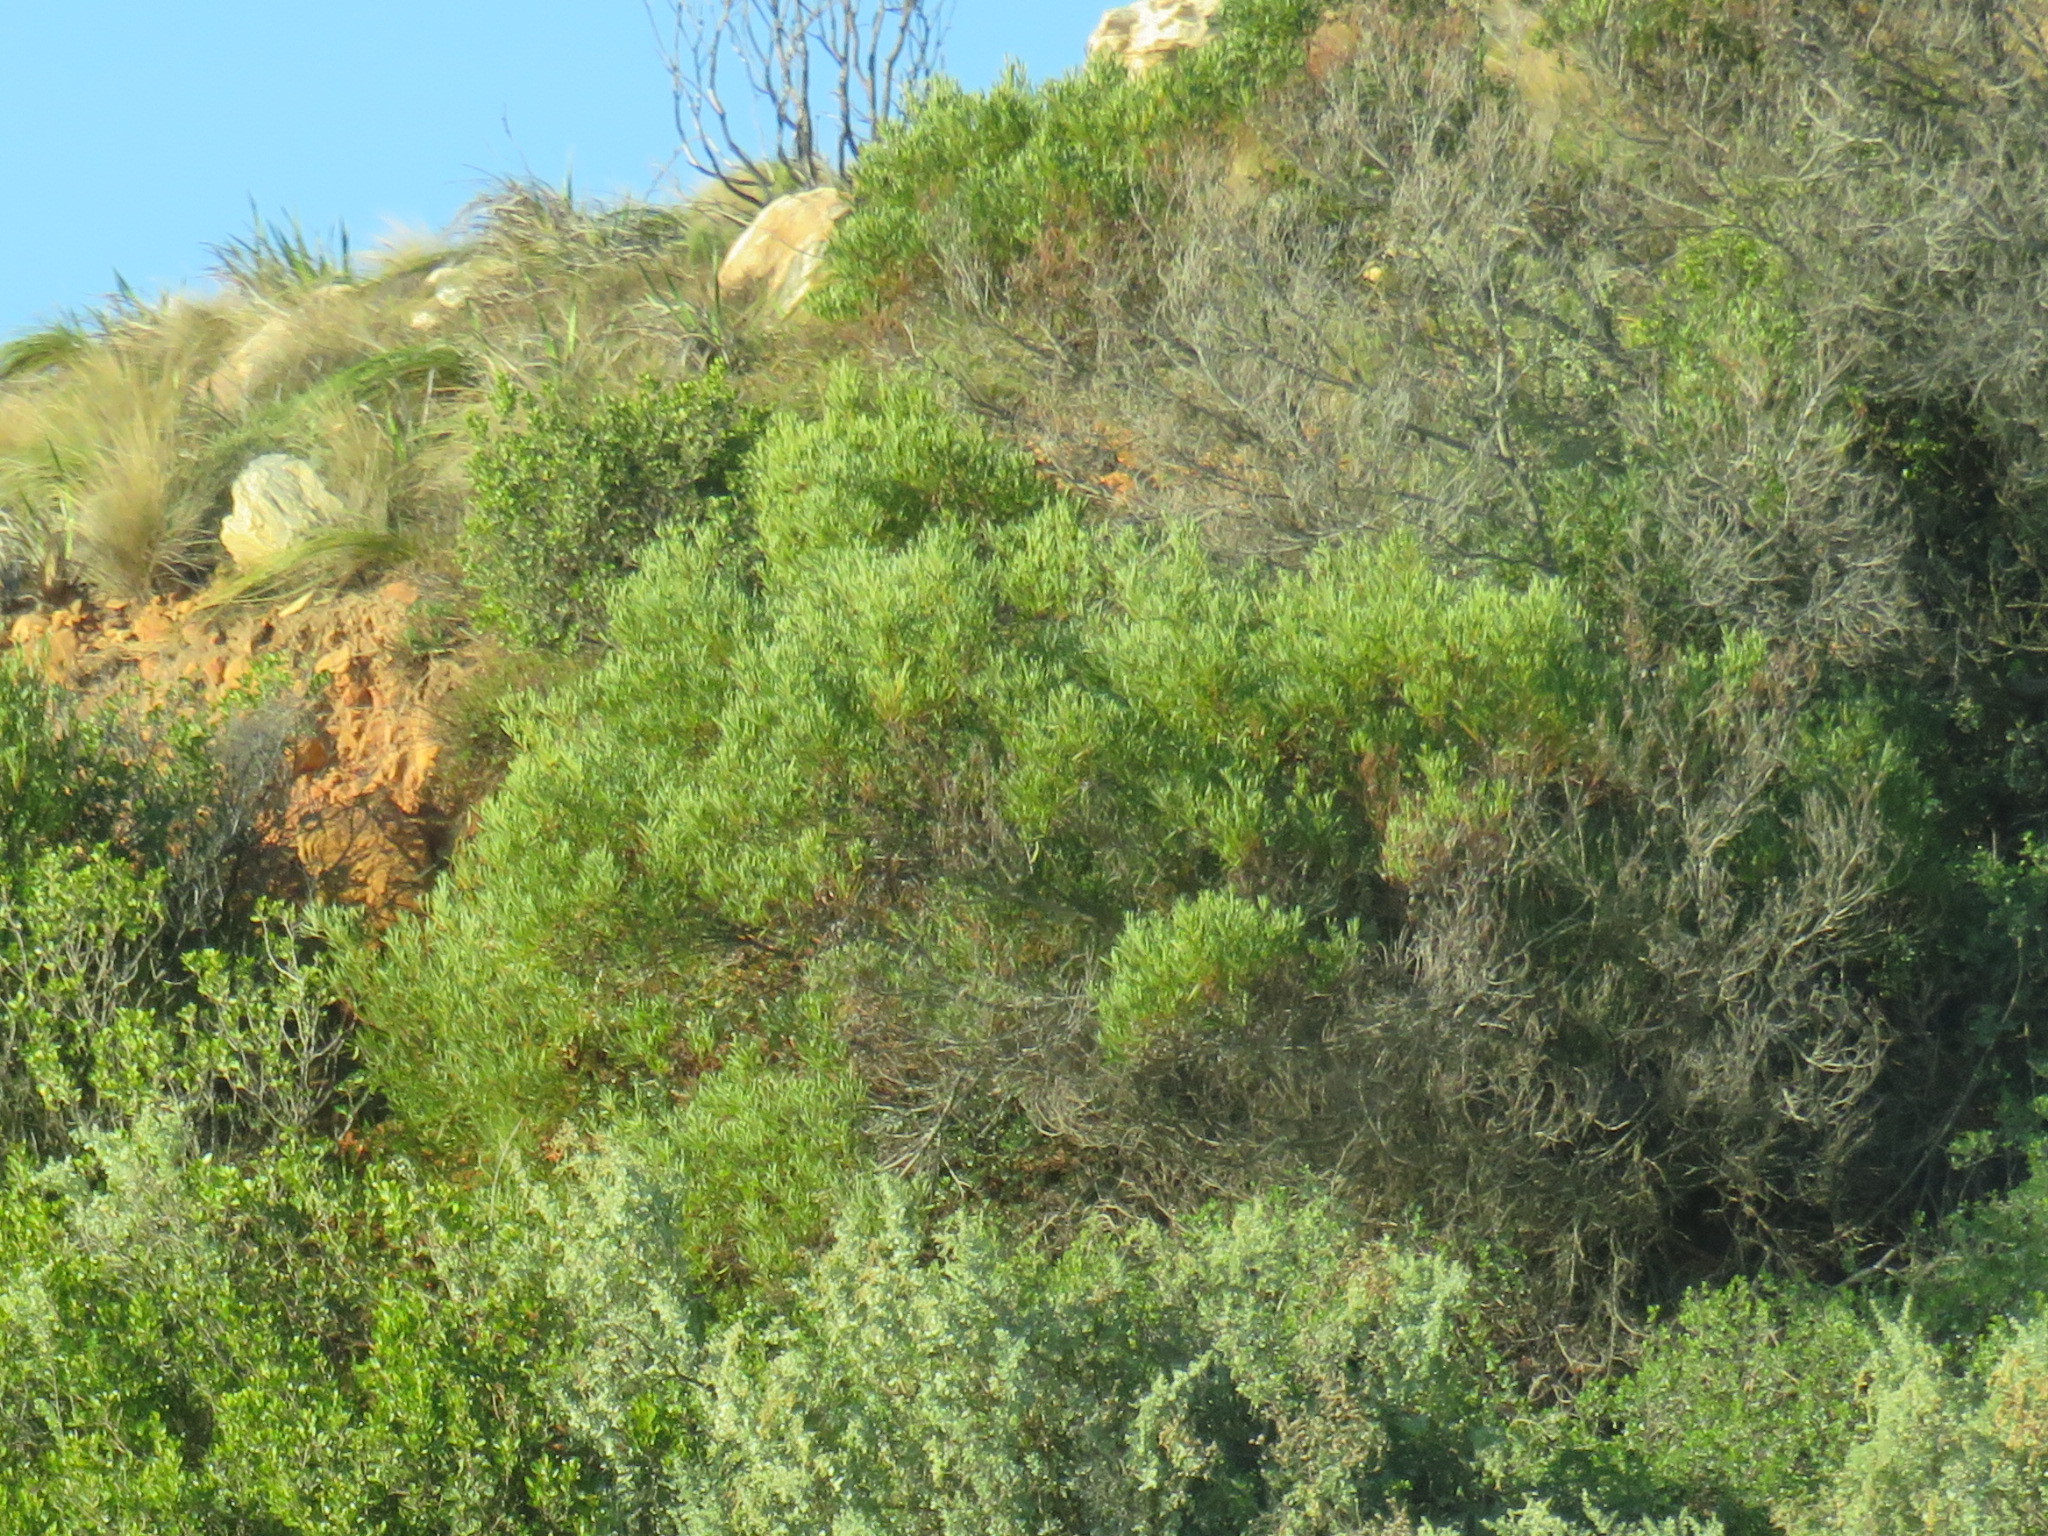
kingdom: Plantae
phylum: Tracheophyta
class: Magnoliopsida
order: Fabales
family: Fabaceae
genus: Acacia
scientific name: Acacia cyclops
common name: Coastal wattle
